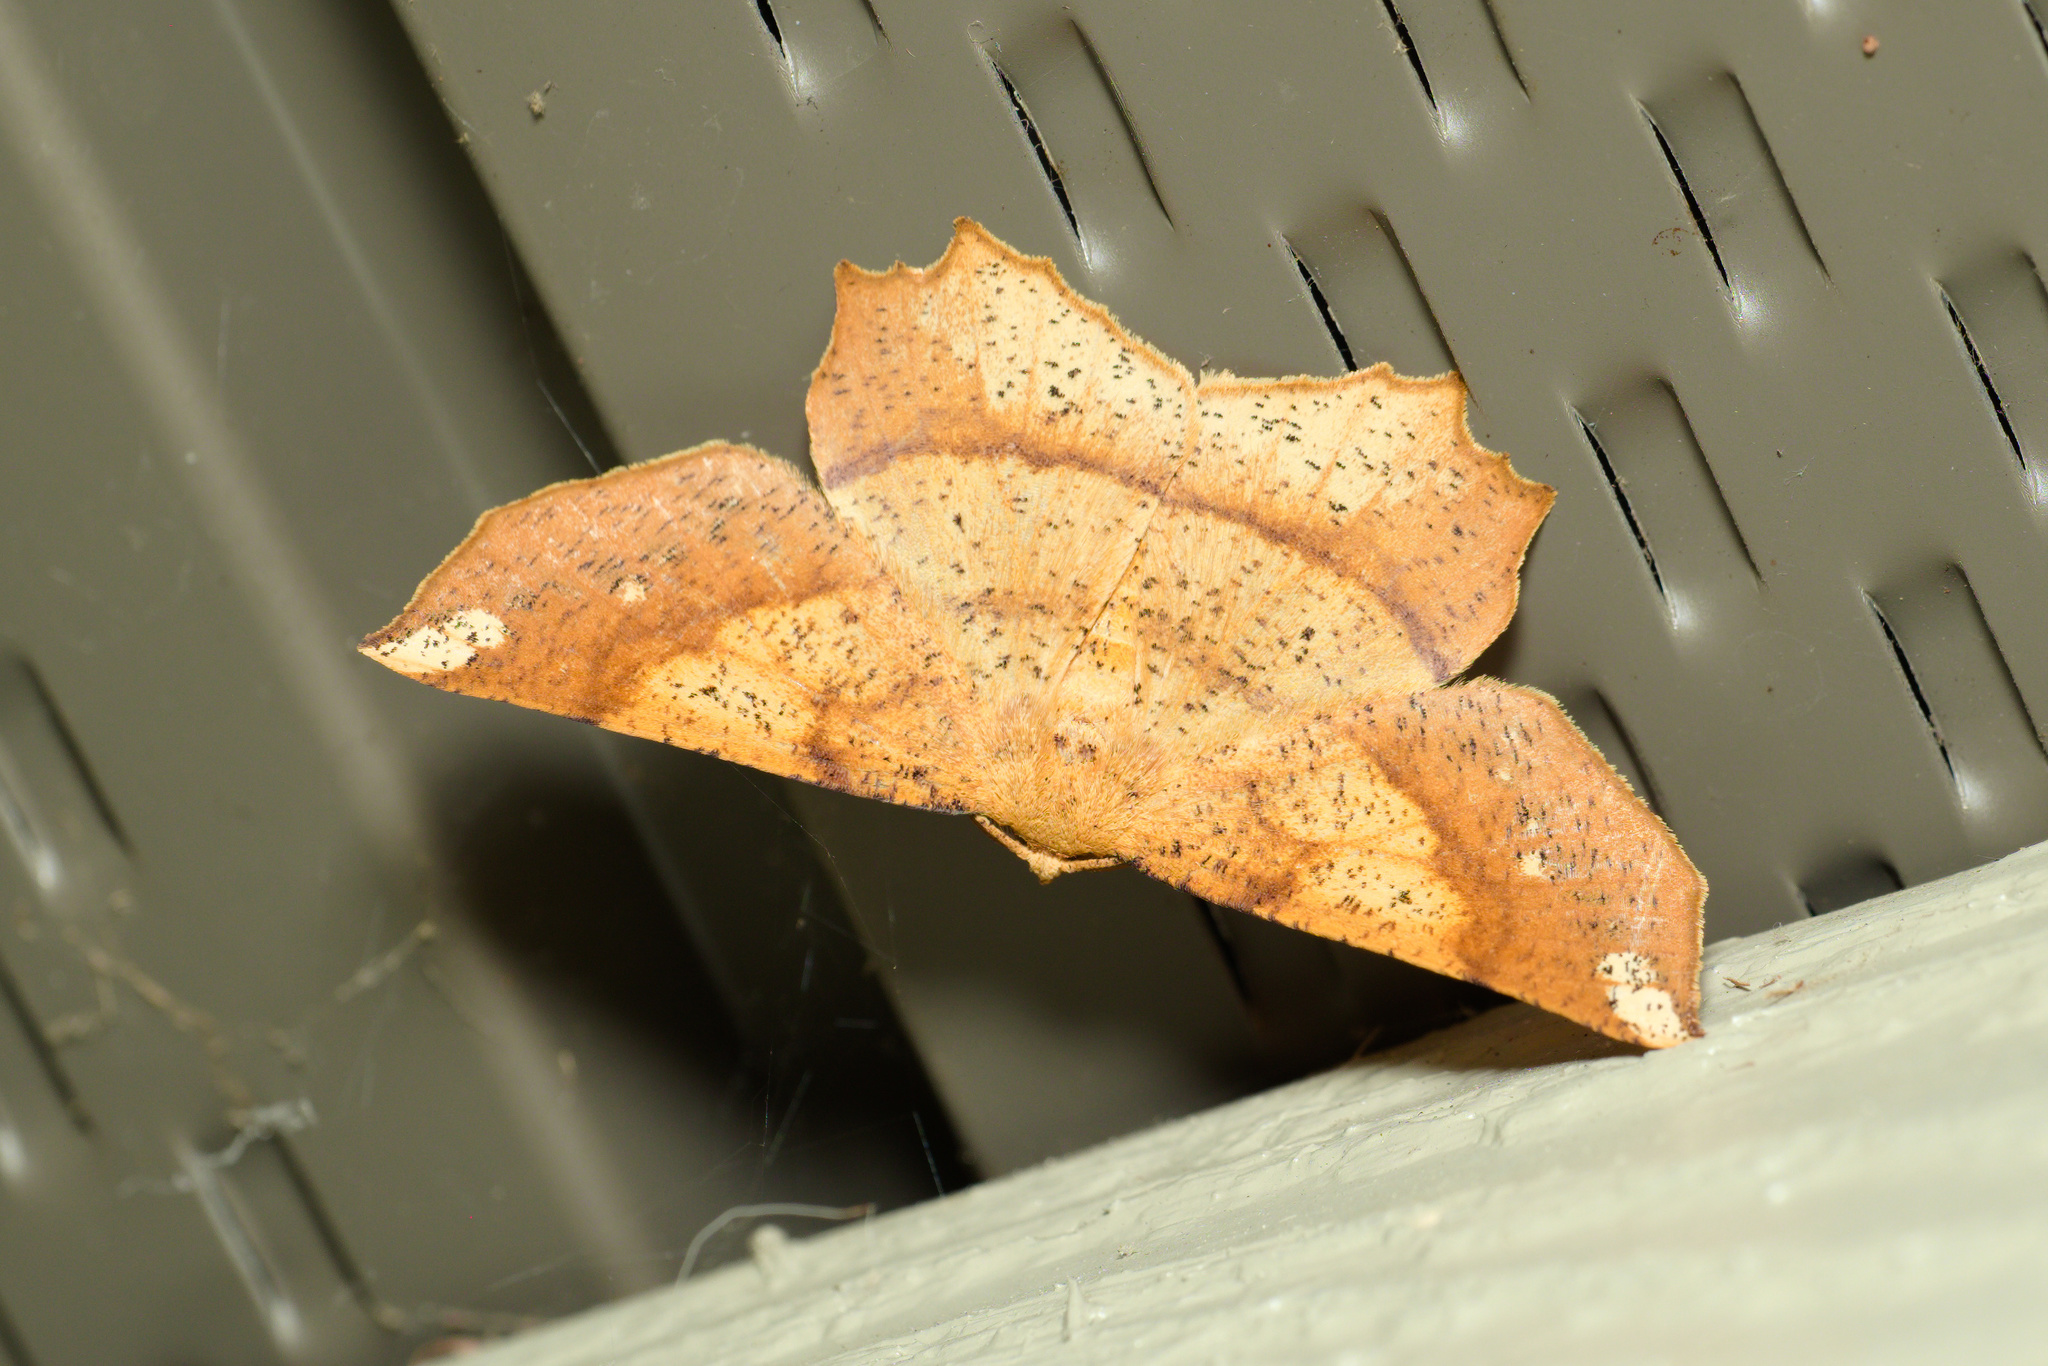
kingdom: Animalia
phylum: Arthropoda
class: Insecta
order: Lepidoptera
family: Geometridae
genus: Euchlaena
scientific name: Euchlaena amoenaria
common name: Deep yellow euchlaena
